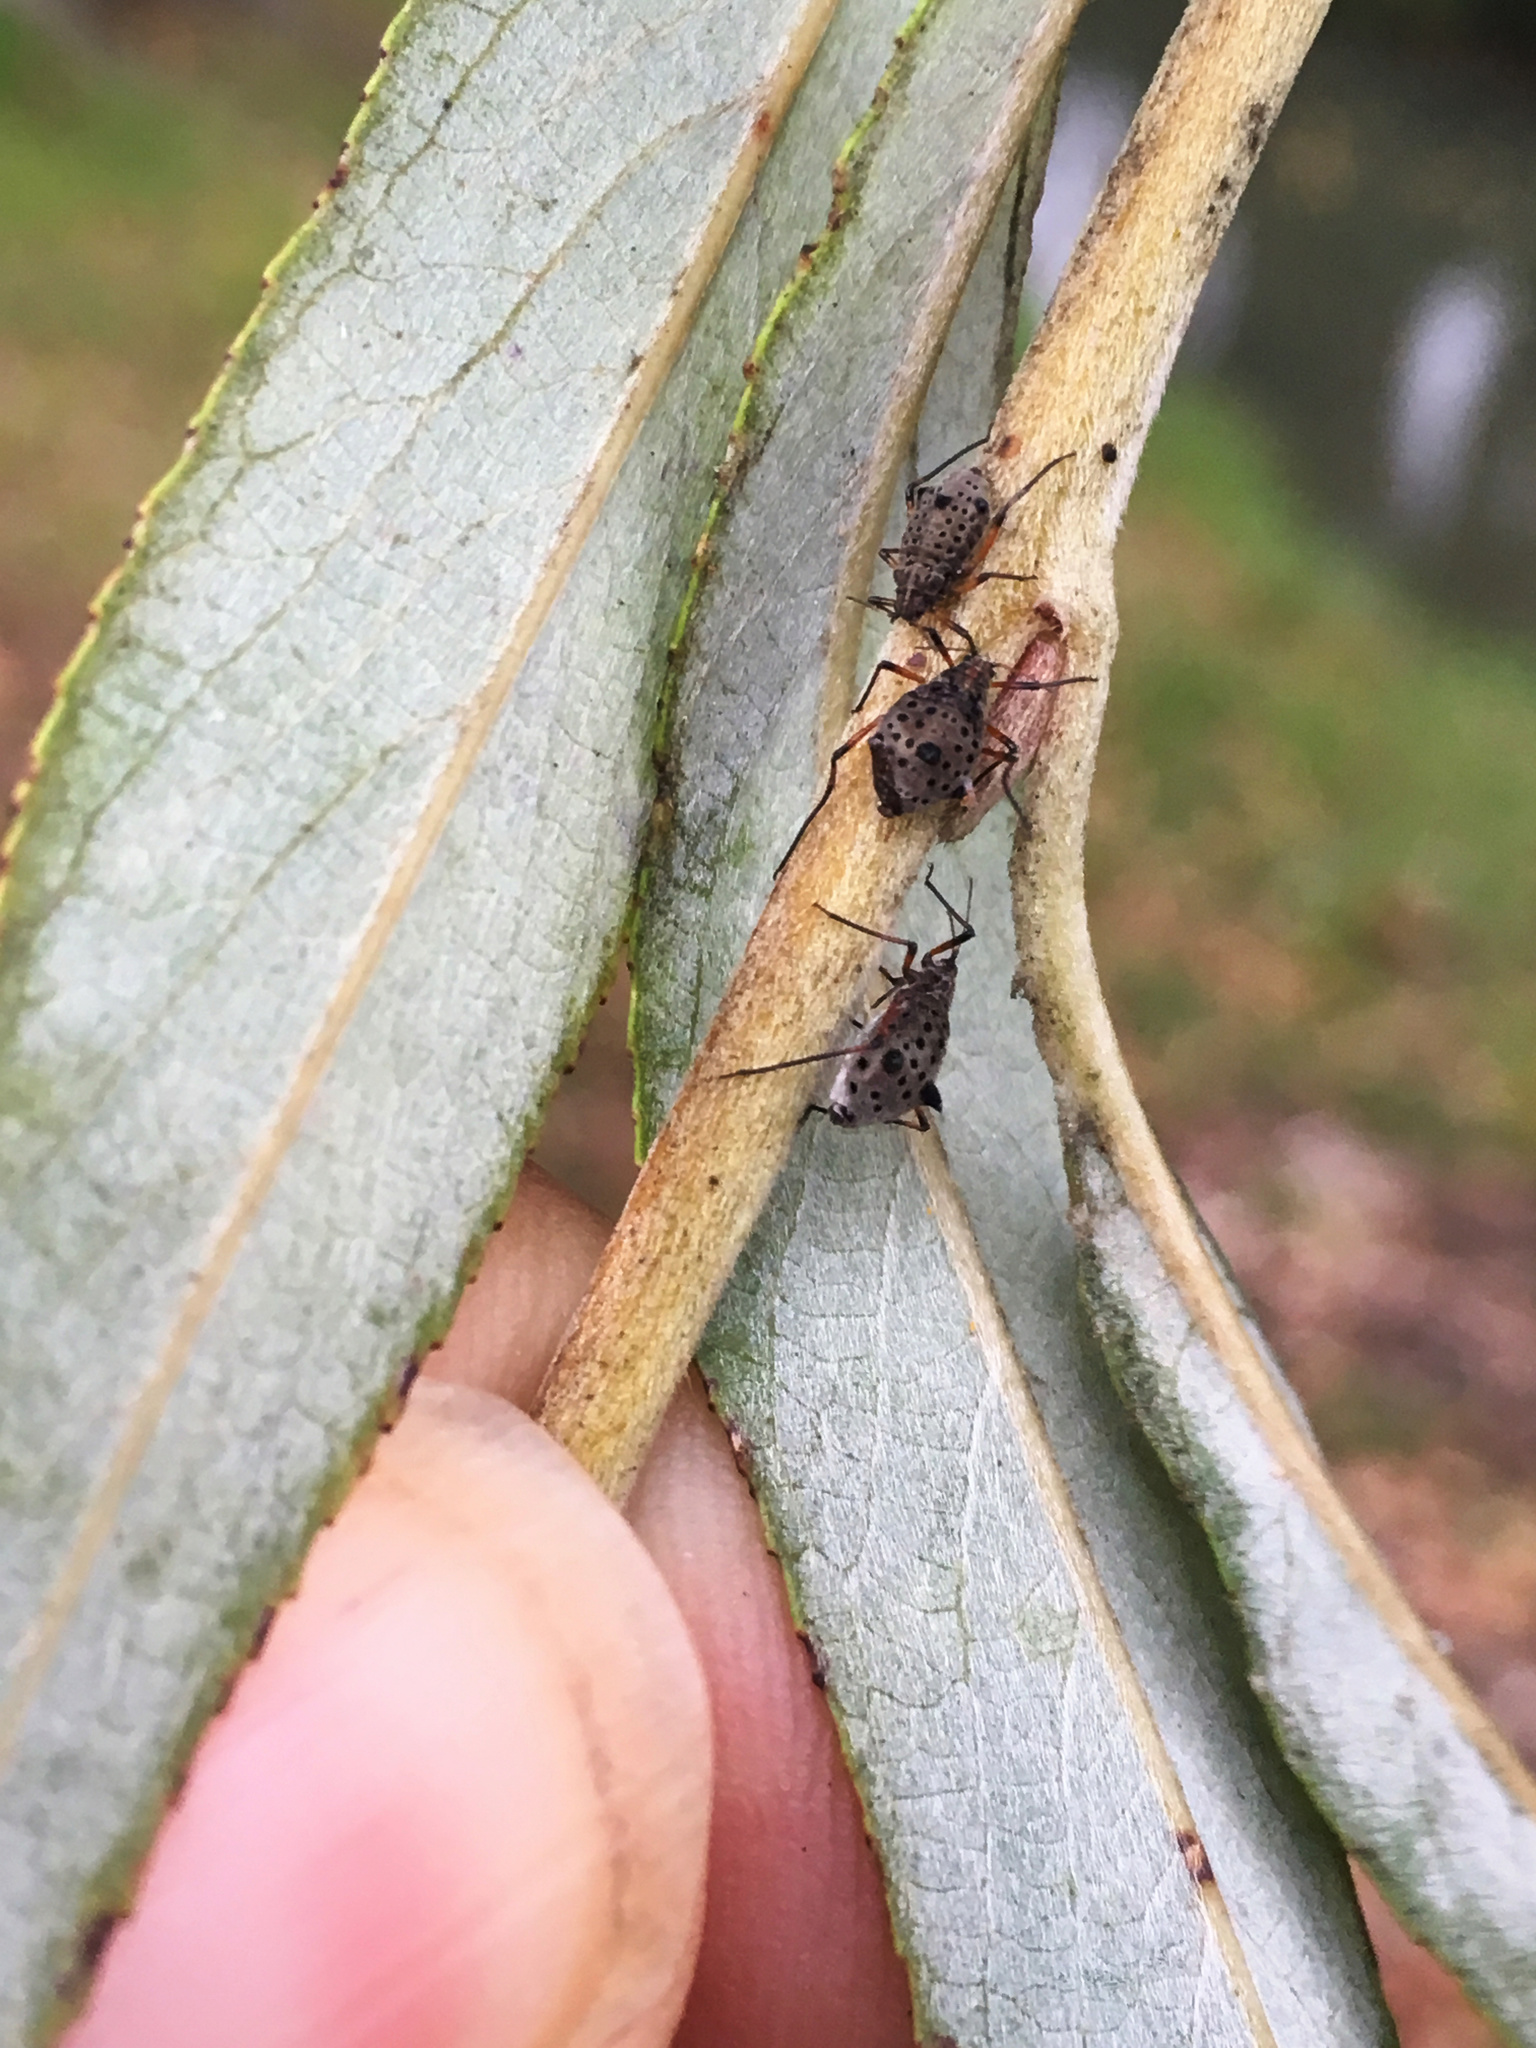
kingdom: Animalia
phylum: Arthropoda
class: Insecta
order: Hemiptera
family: Aphididae
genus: Tuberolachnus
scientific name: Tuberolachnus salignus
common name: Giant willow aphid
